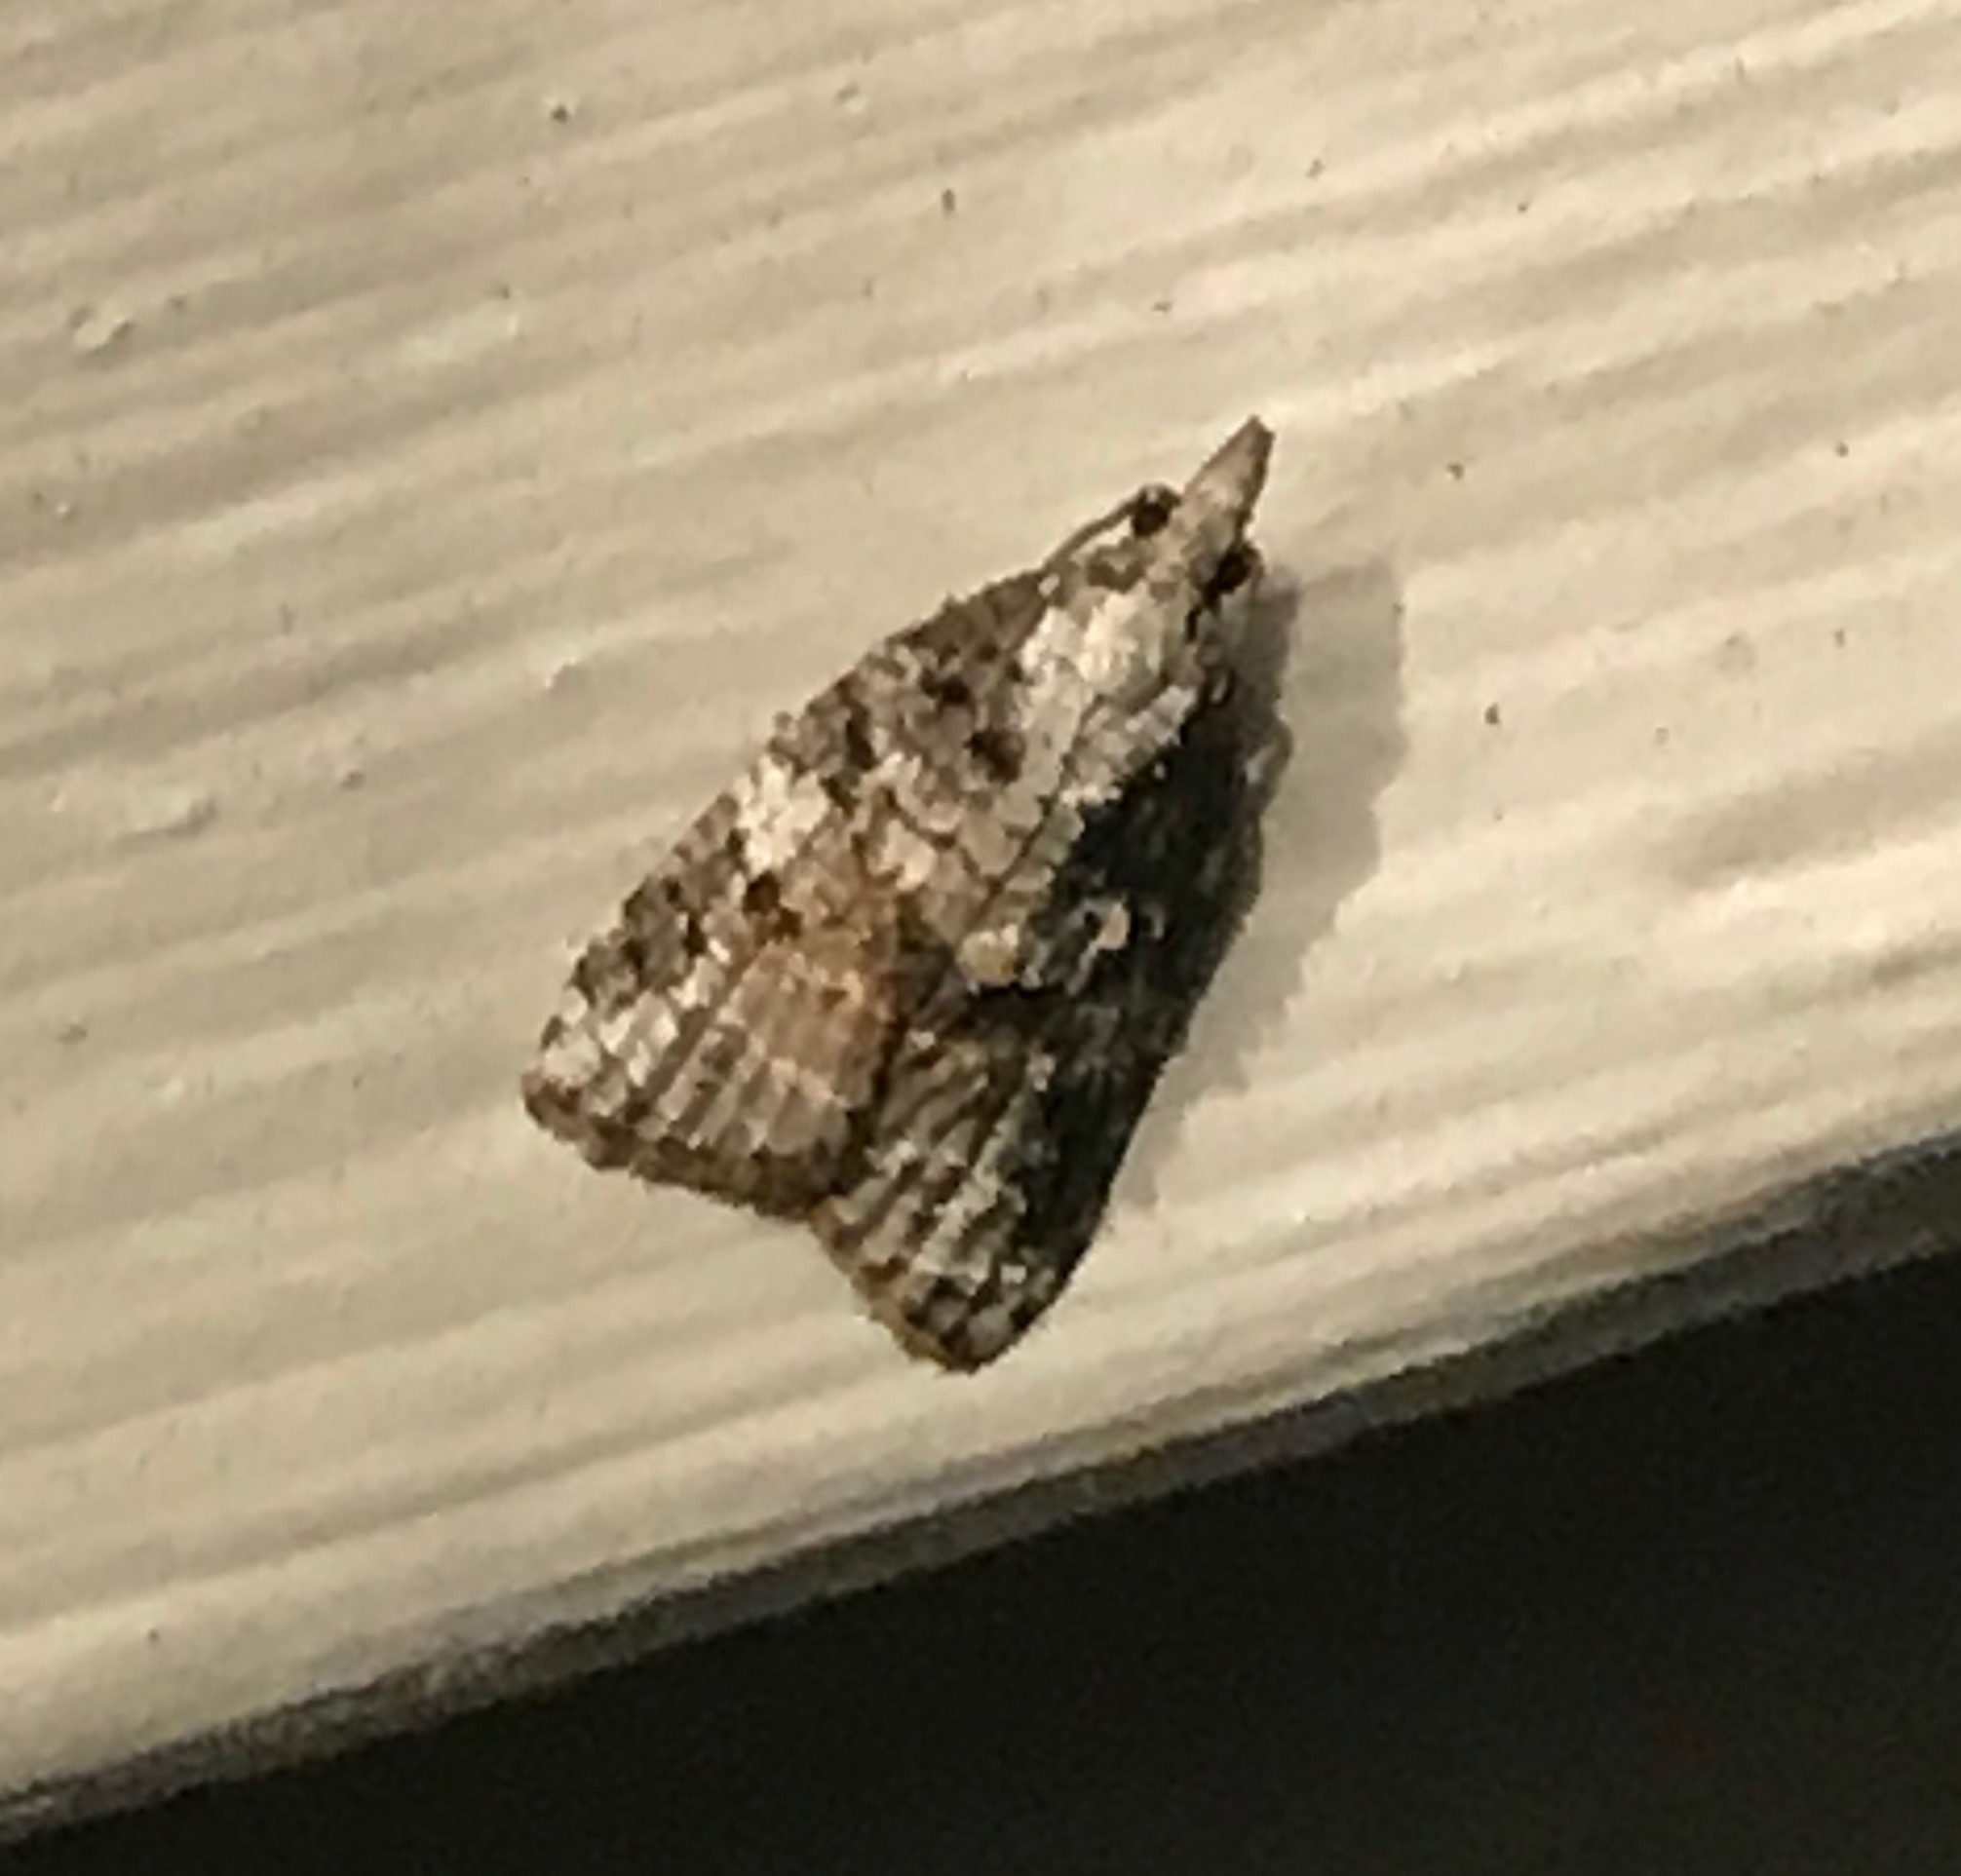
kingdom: Animalia
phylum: Arthropoda
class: Insecta
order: Lepidoptera
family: Tortricidae
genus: Platynota
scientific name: Platynota exasperatana
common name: Exasperating platynota moth
